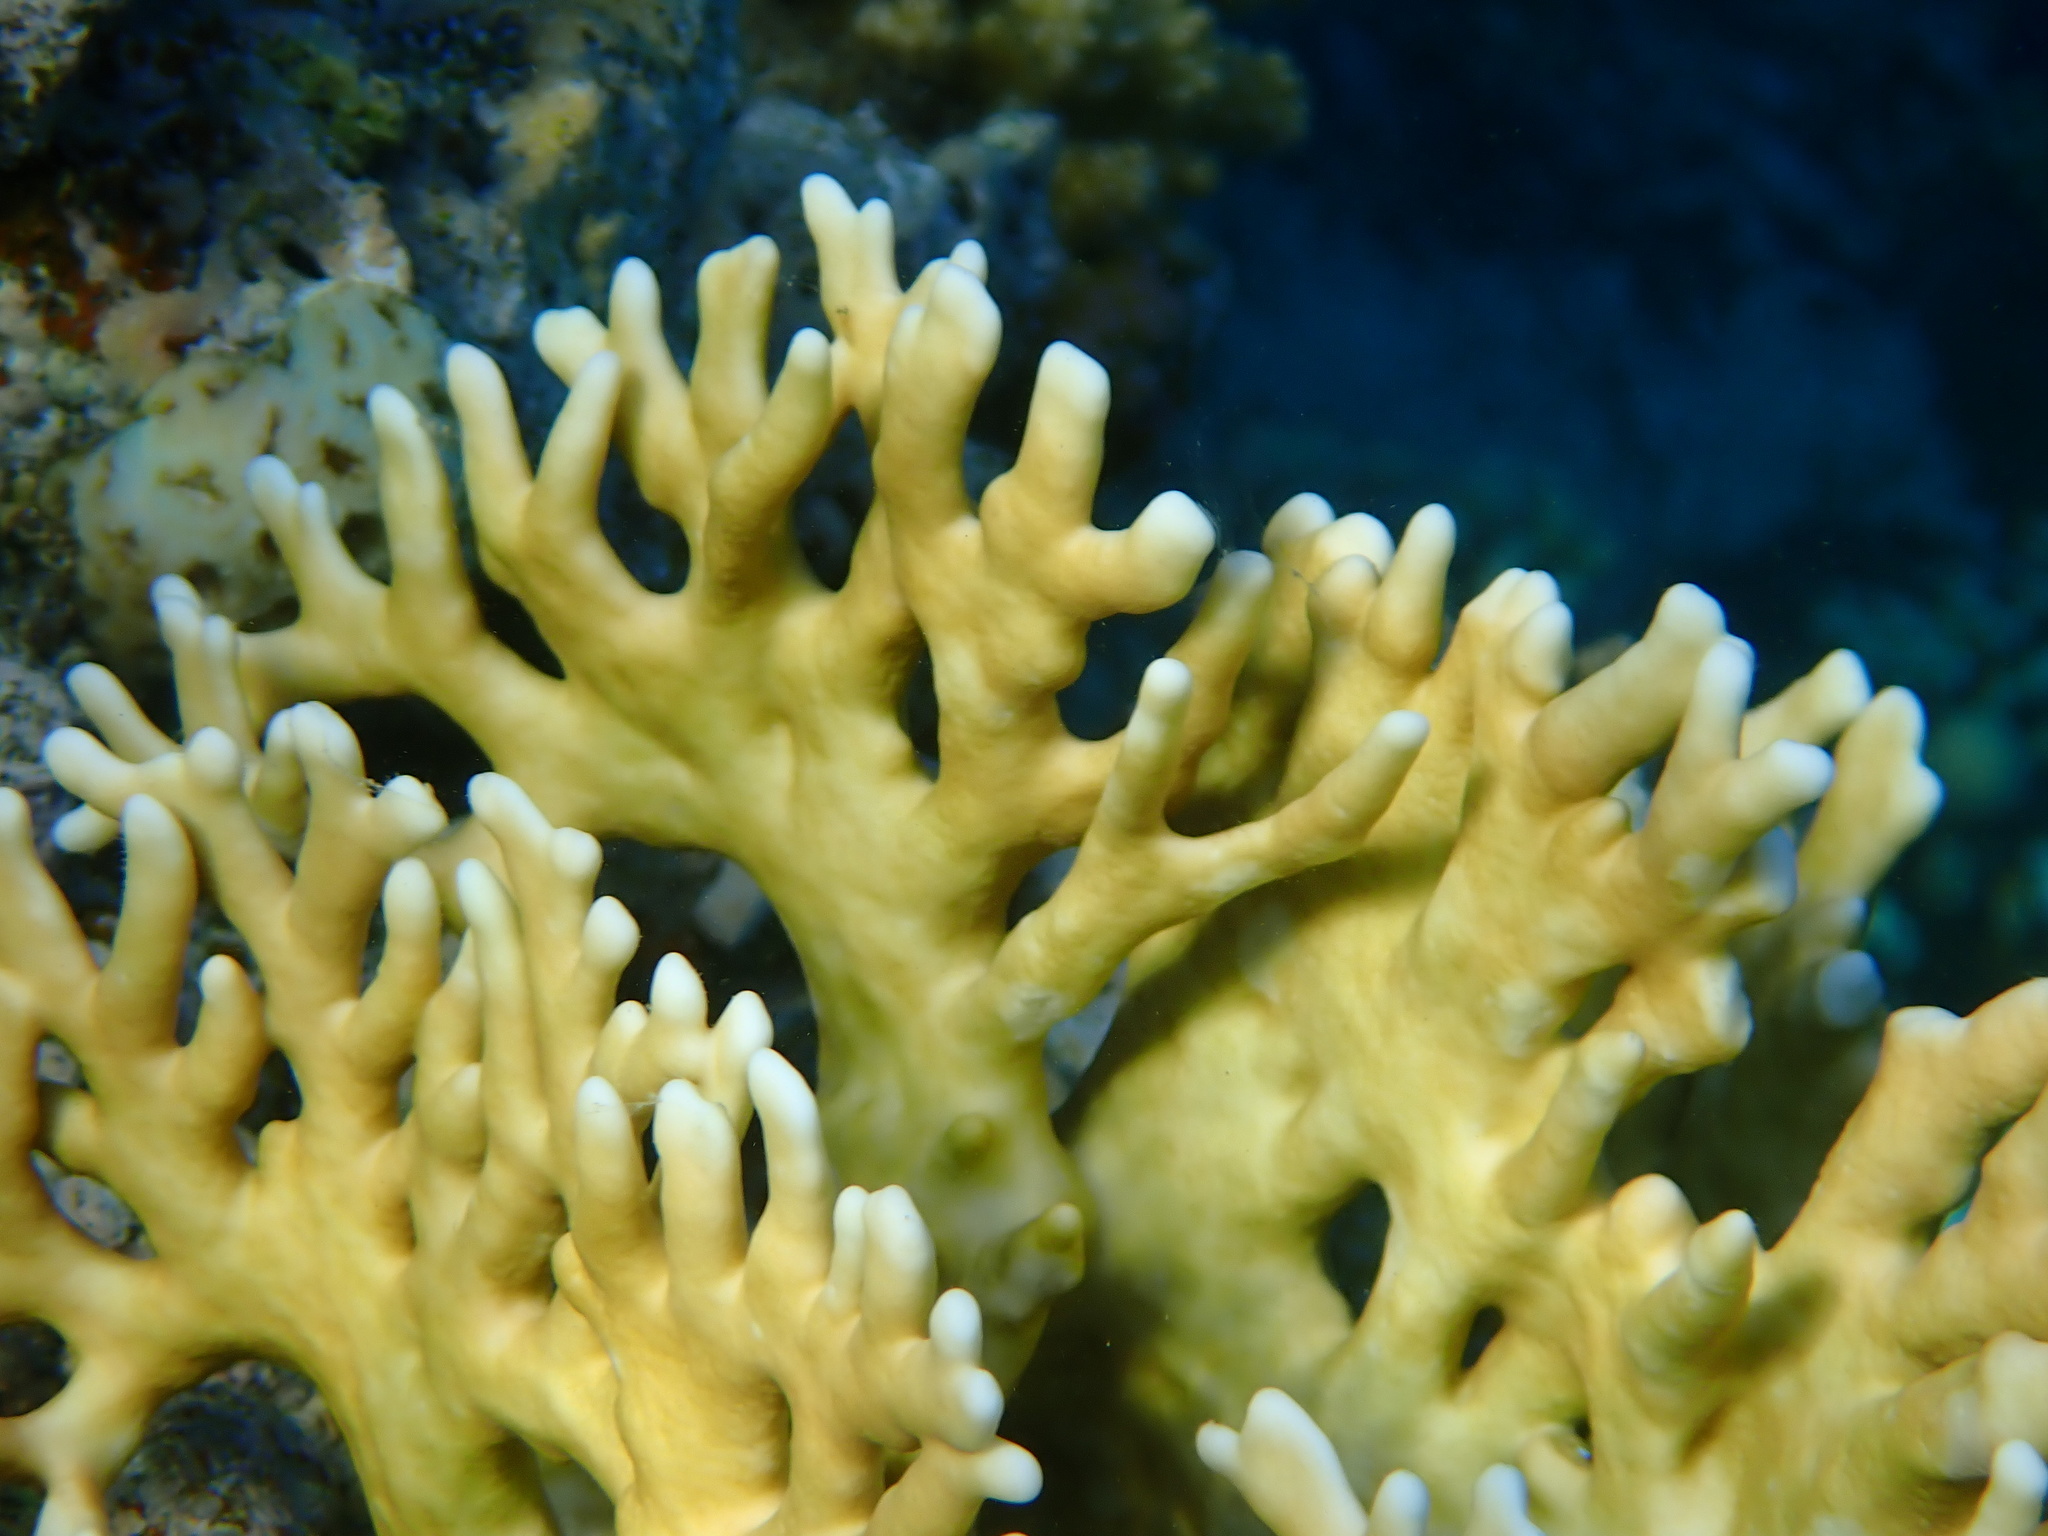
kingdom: Animalia
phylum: Cnidaria
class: Hydrozoa
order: Anthoathecata
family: Milleporidae
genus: Millepora
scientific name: Millepora dichotoma
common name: Ramified fire coral
